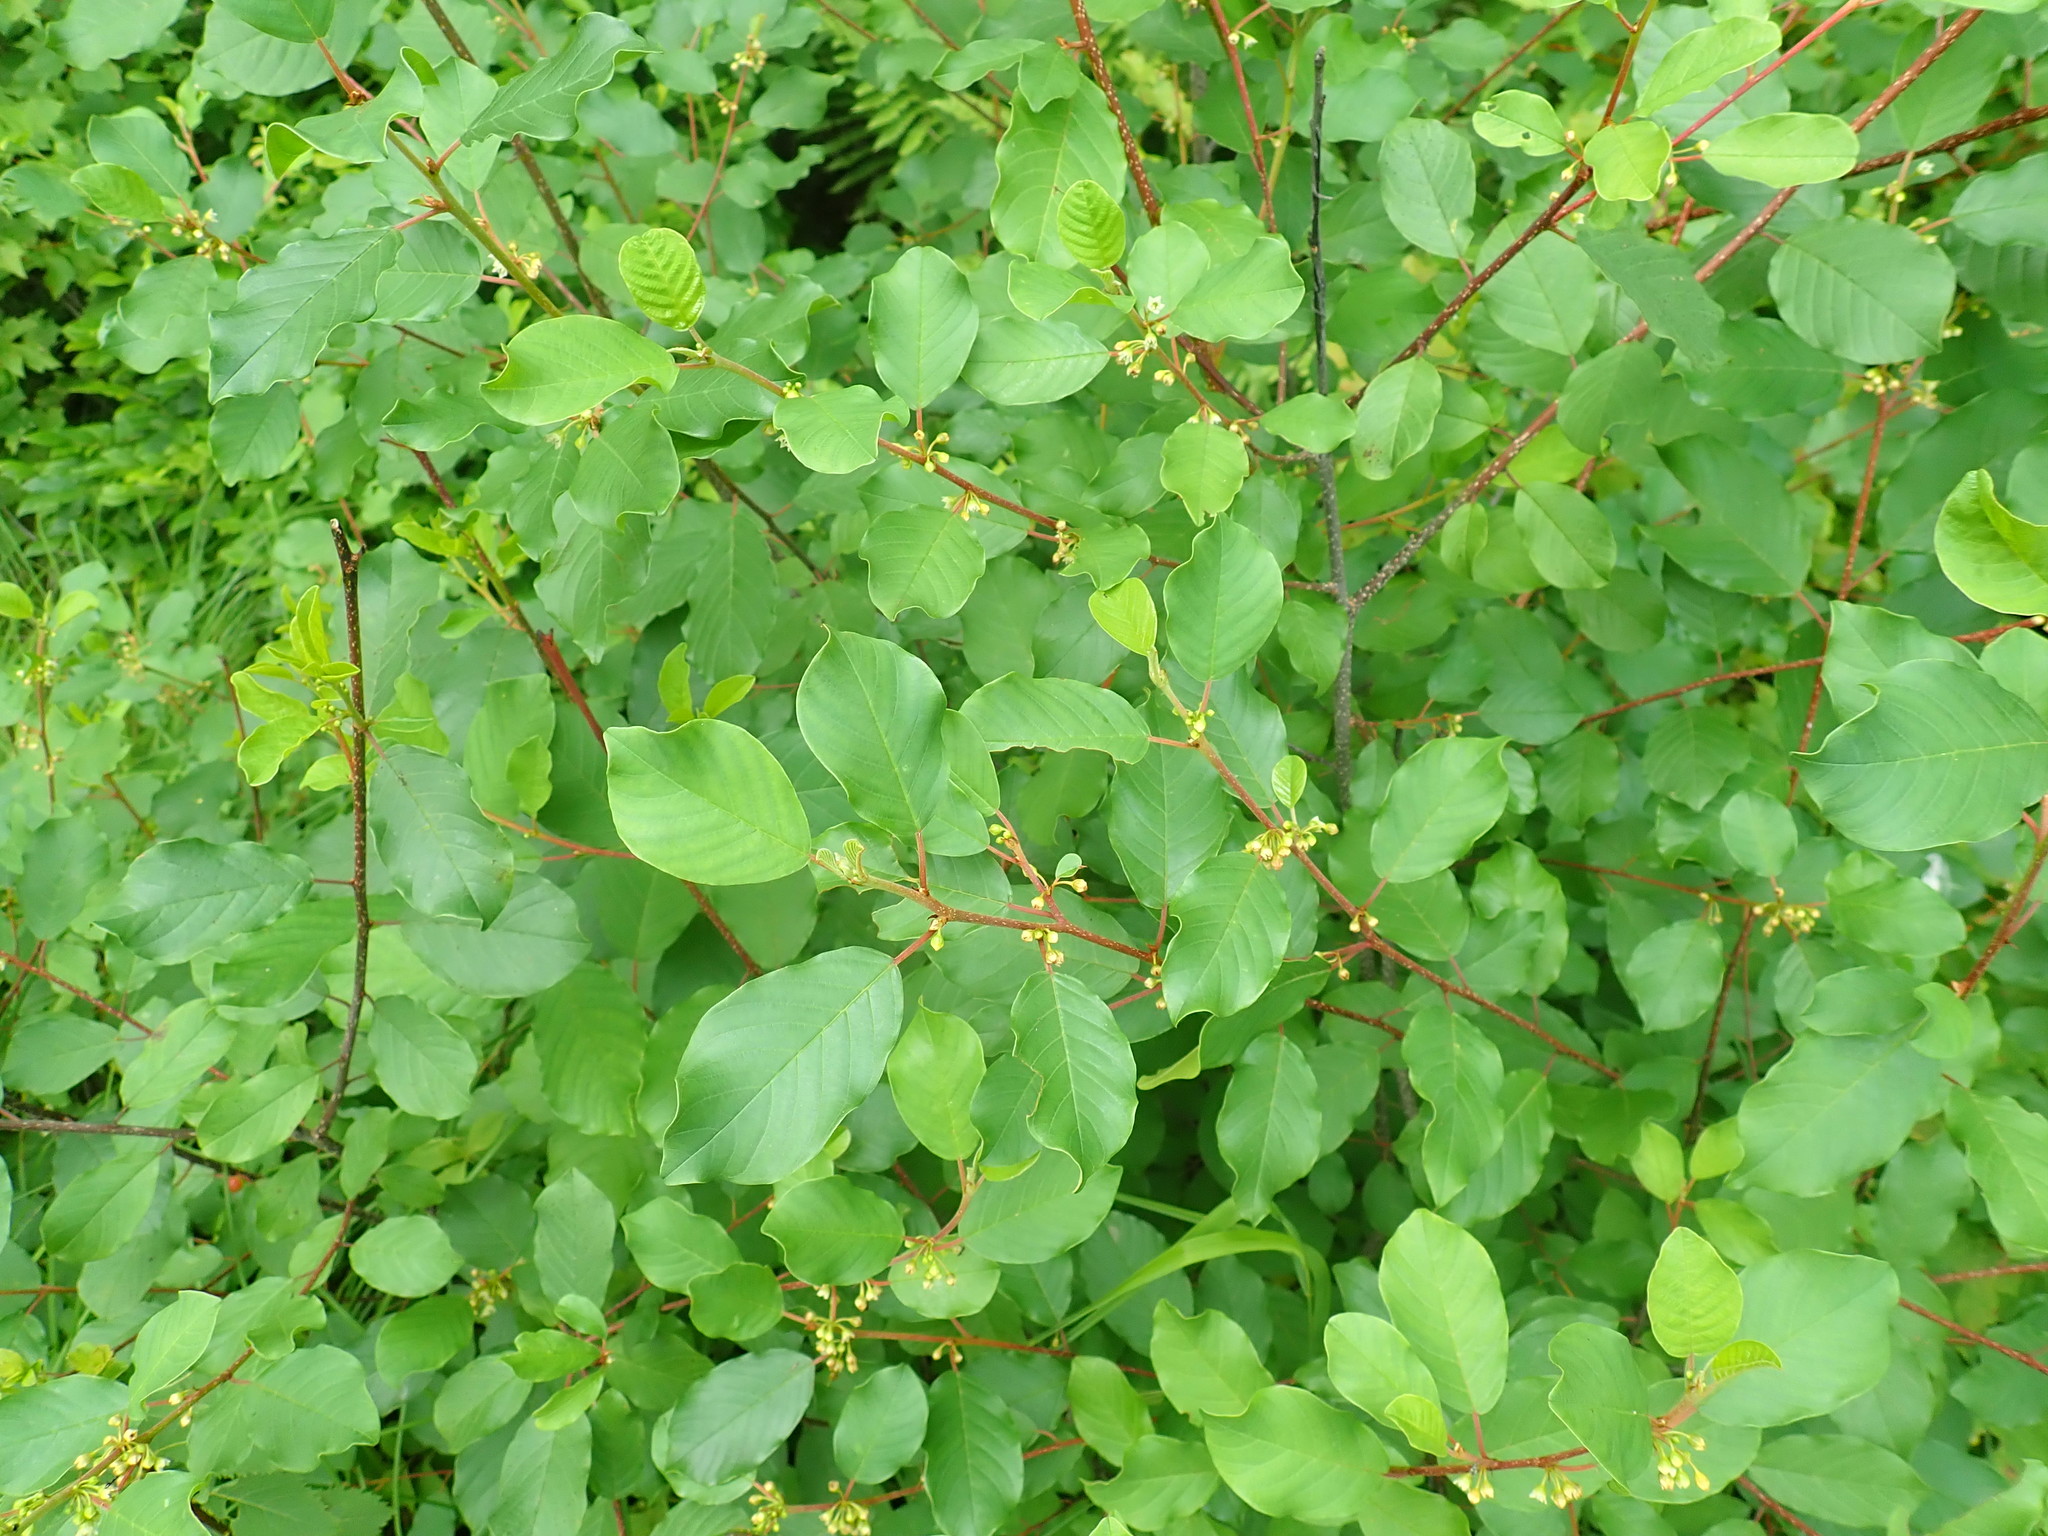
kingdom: Plantae
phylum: Tracheophyta
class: Magnoliopsida
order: Rosales
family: Rhamnaceae
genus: Frangula
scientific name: Frangula alnus
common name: Alder buckthorn
